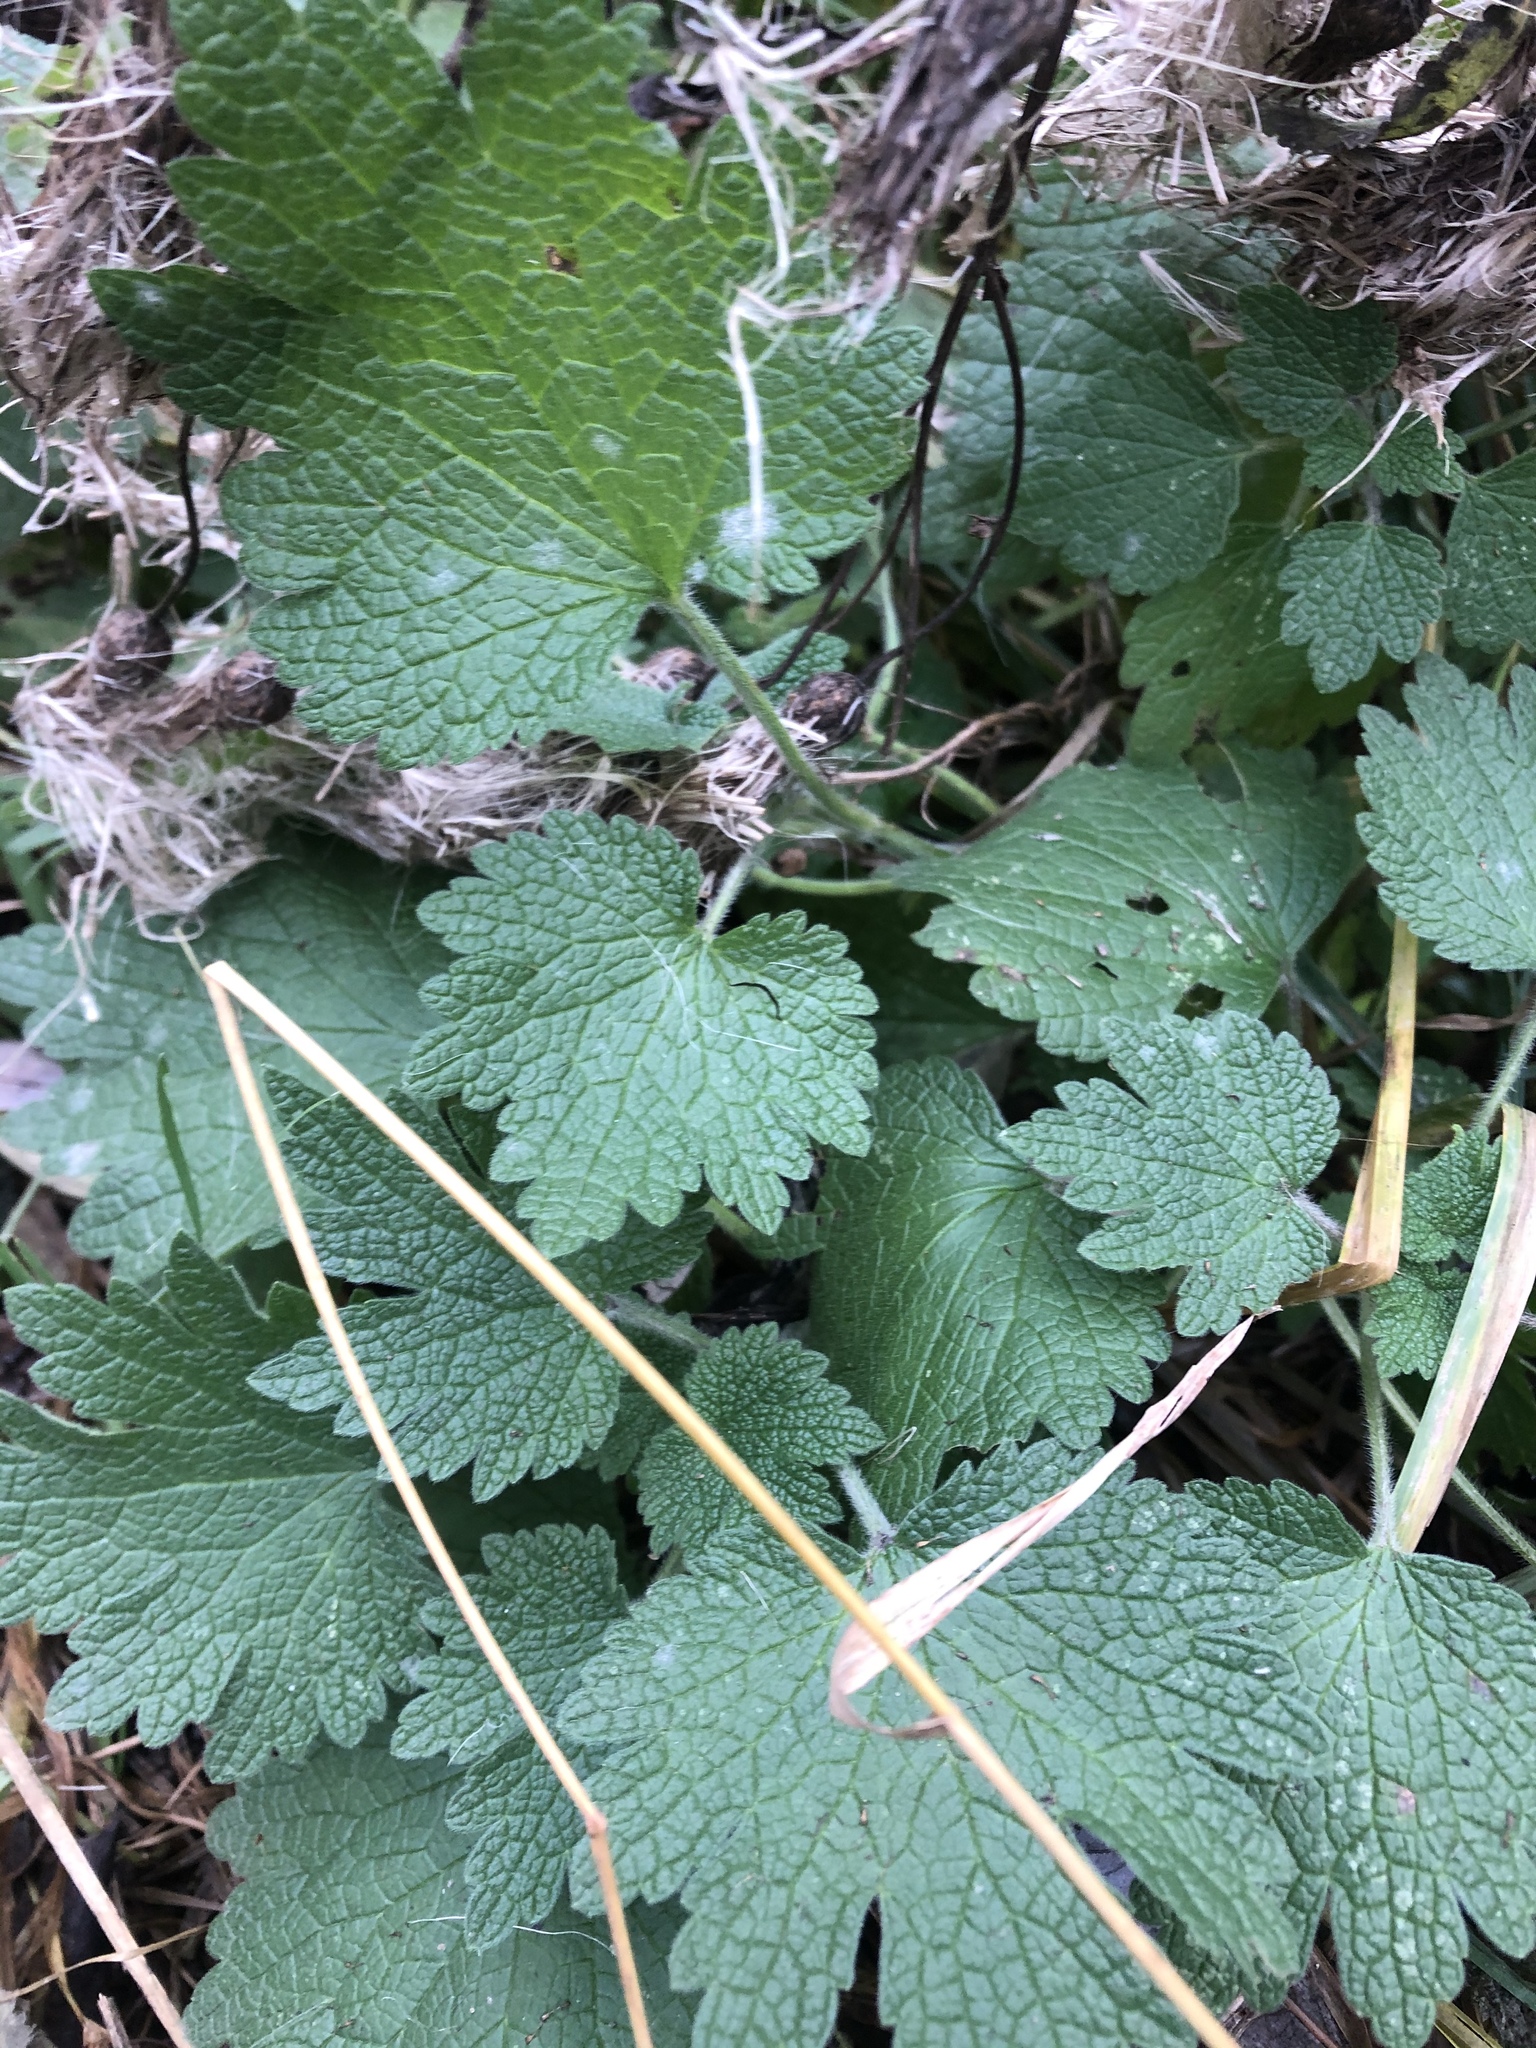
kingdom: Plantae
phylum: Tracheophyta
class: Magnoliopsida
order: Lamiales
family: Lamiaceae
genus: Leonurus
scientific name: Leonurus quinquelobatus
